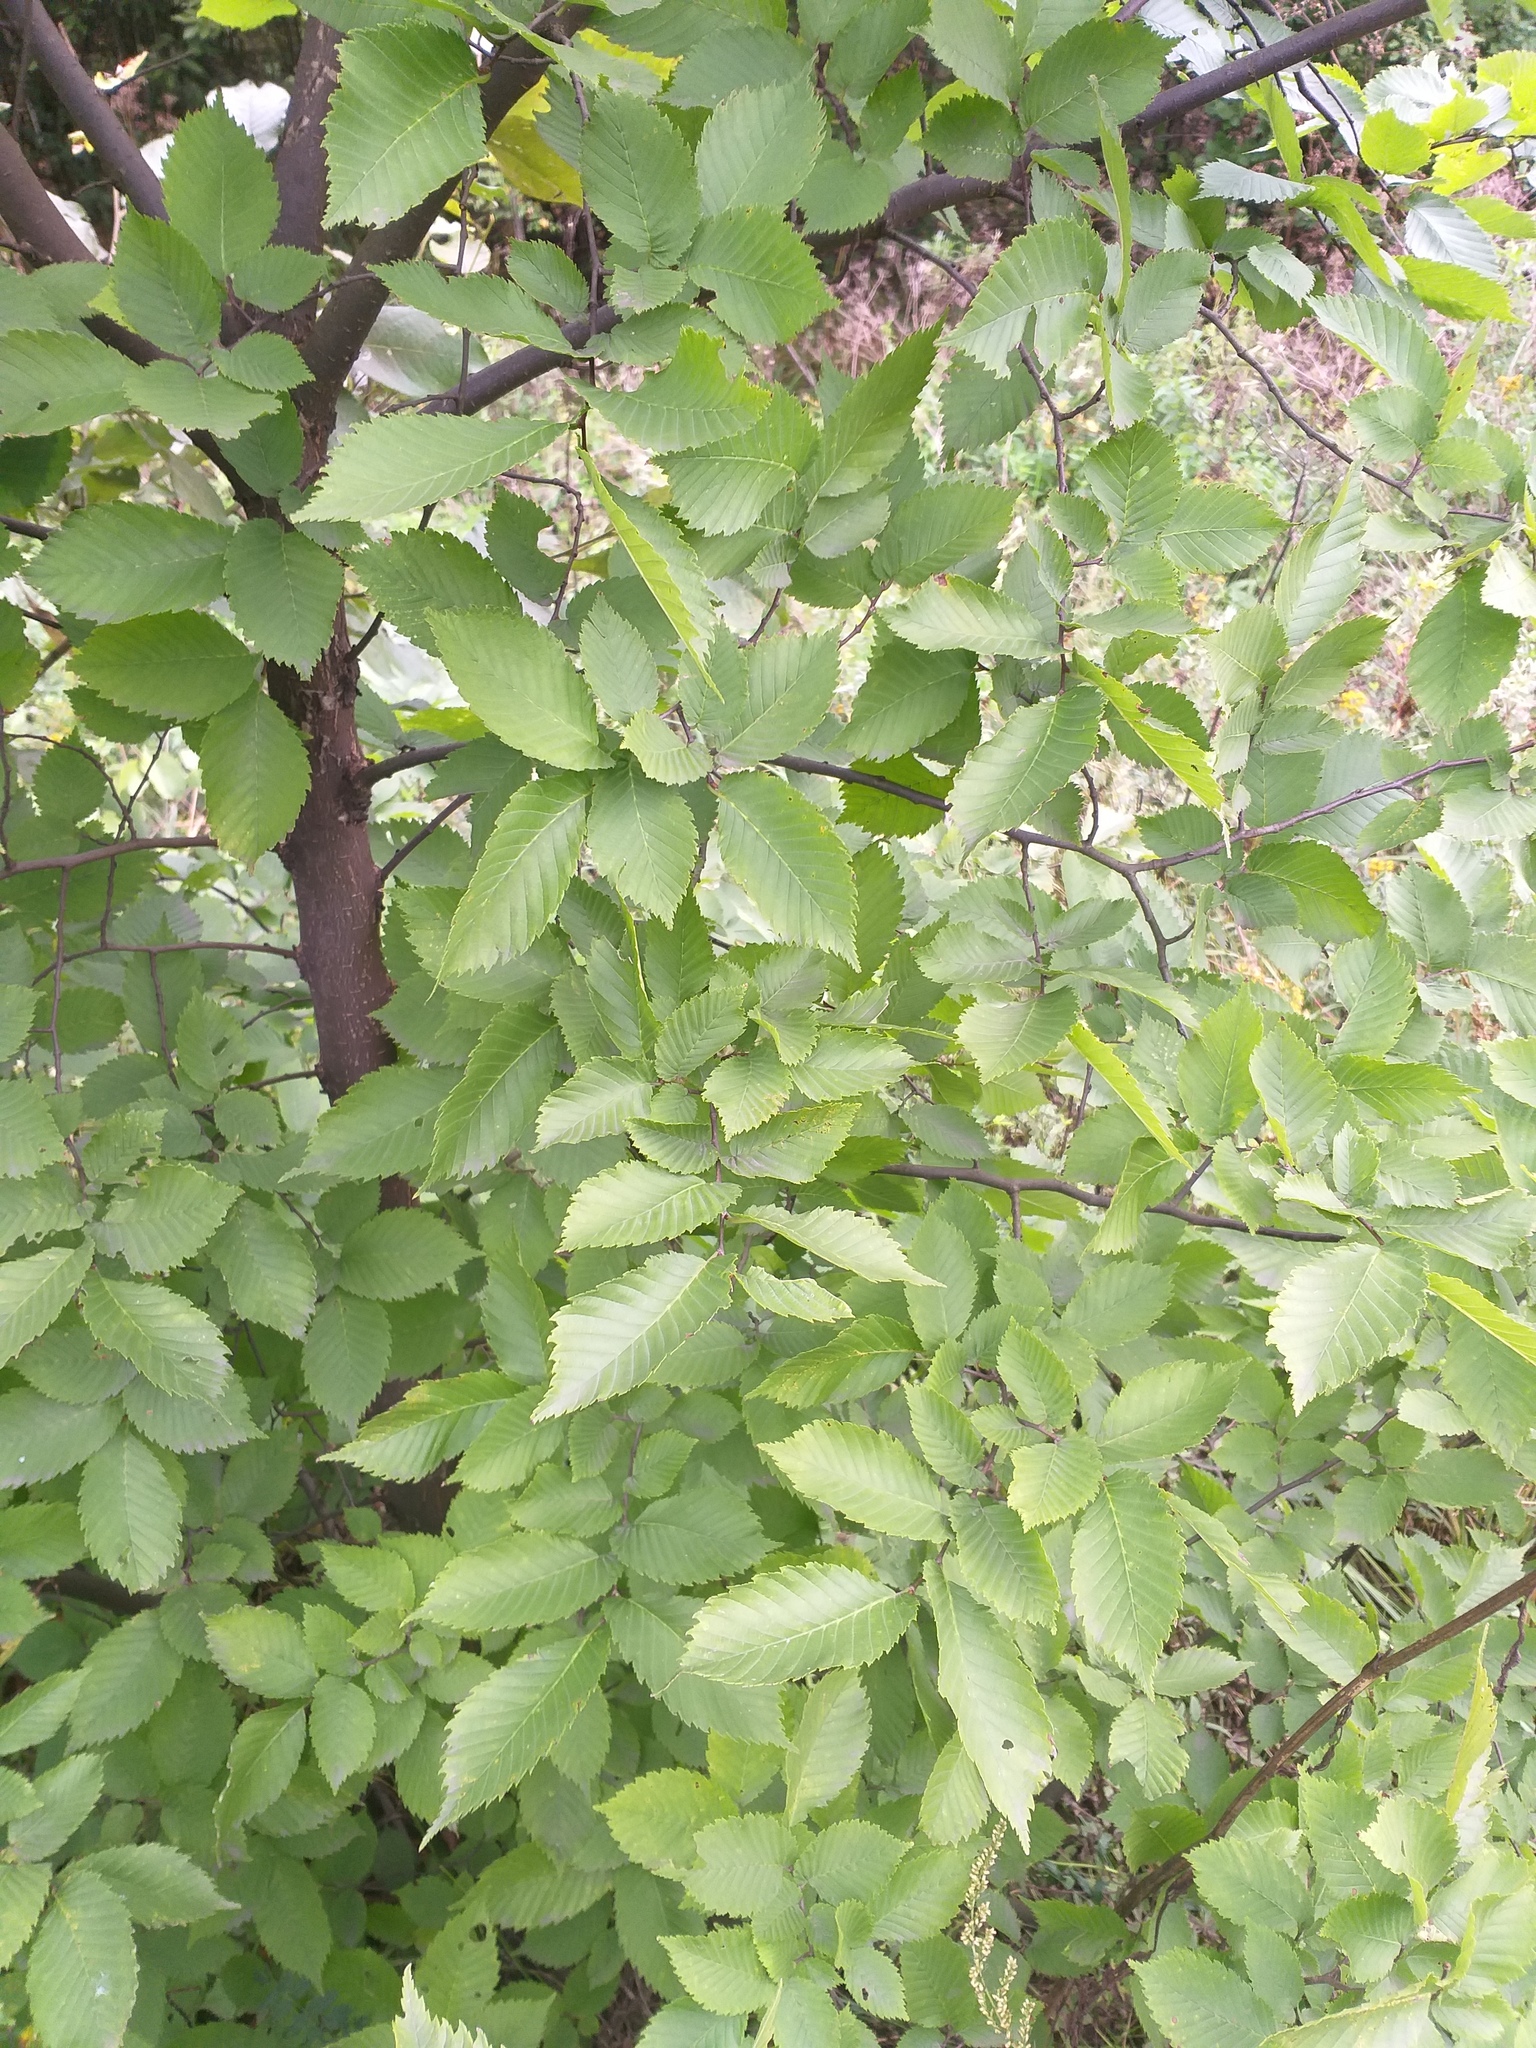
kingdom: Plantae
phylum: Tracheophyta
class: Magnoliopsida
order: Rosales
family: Ulmaceae
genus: Ulmus
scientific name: Ulmus laevis
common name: European white-elm
